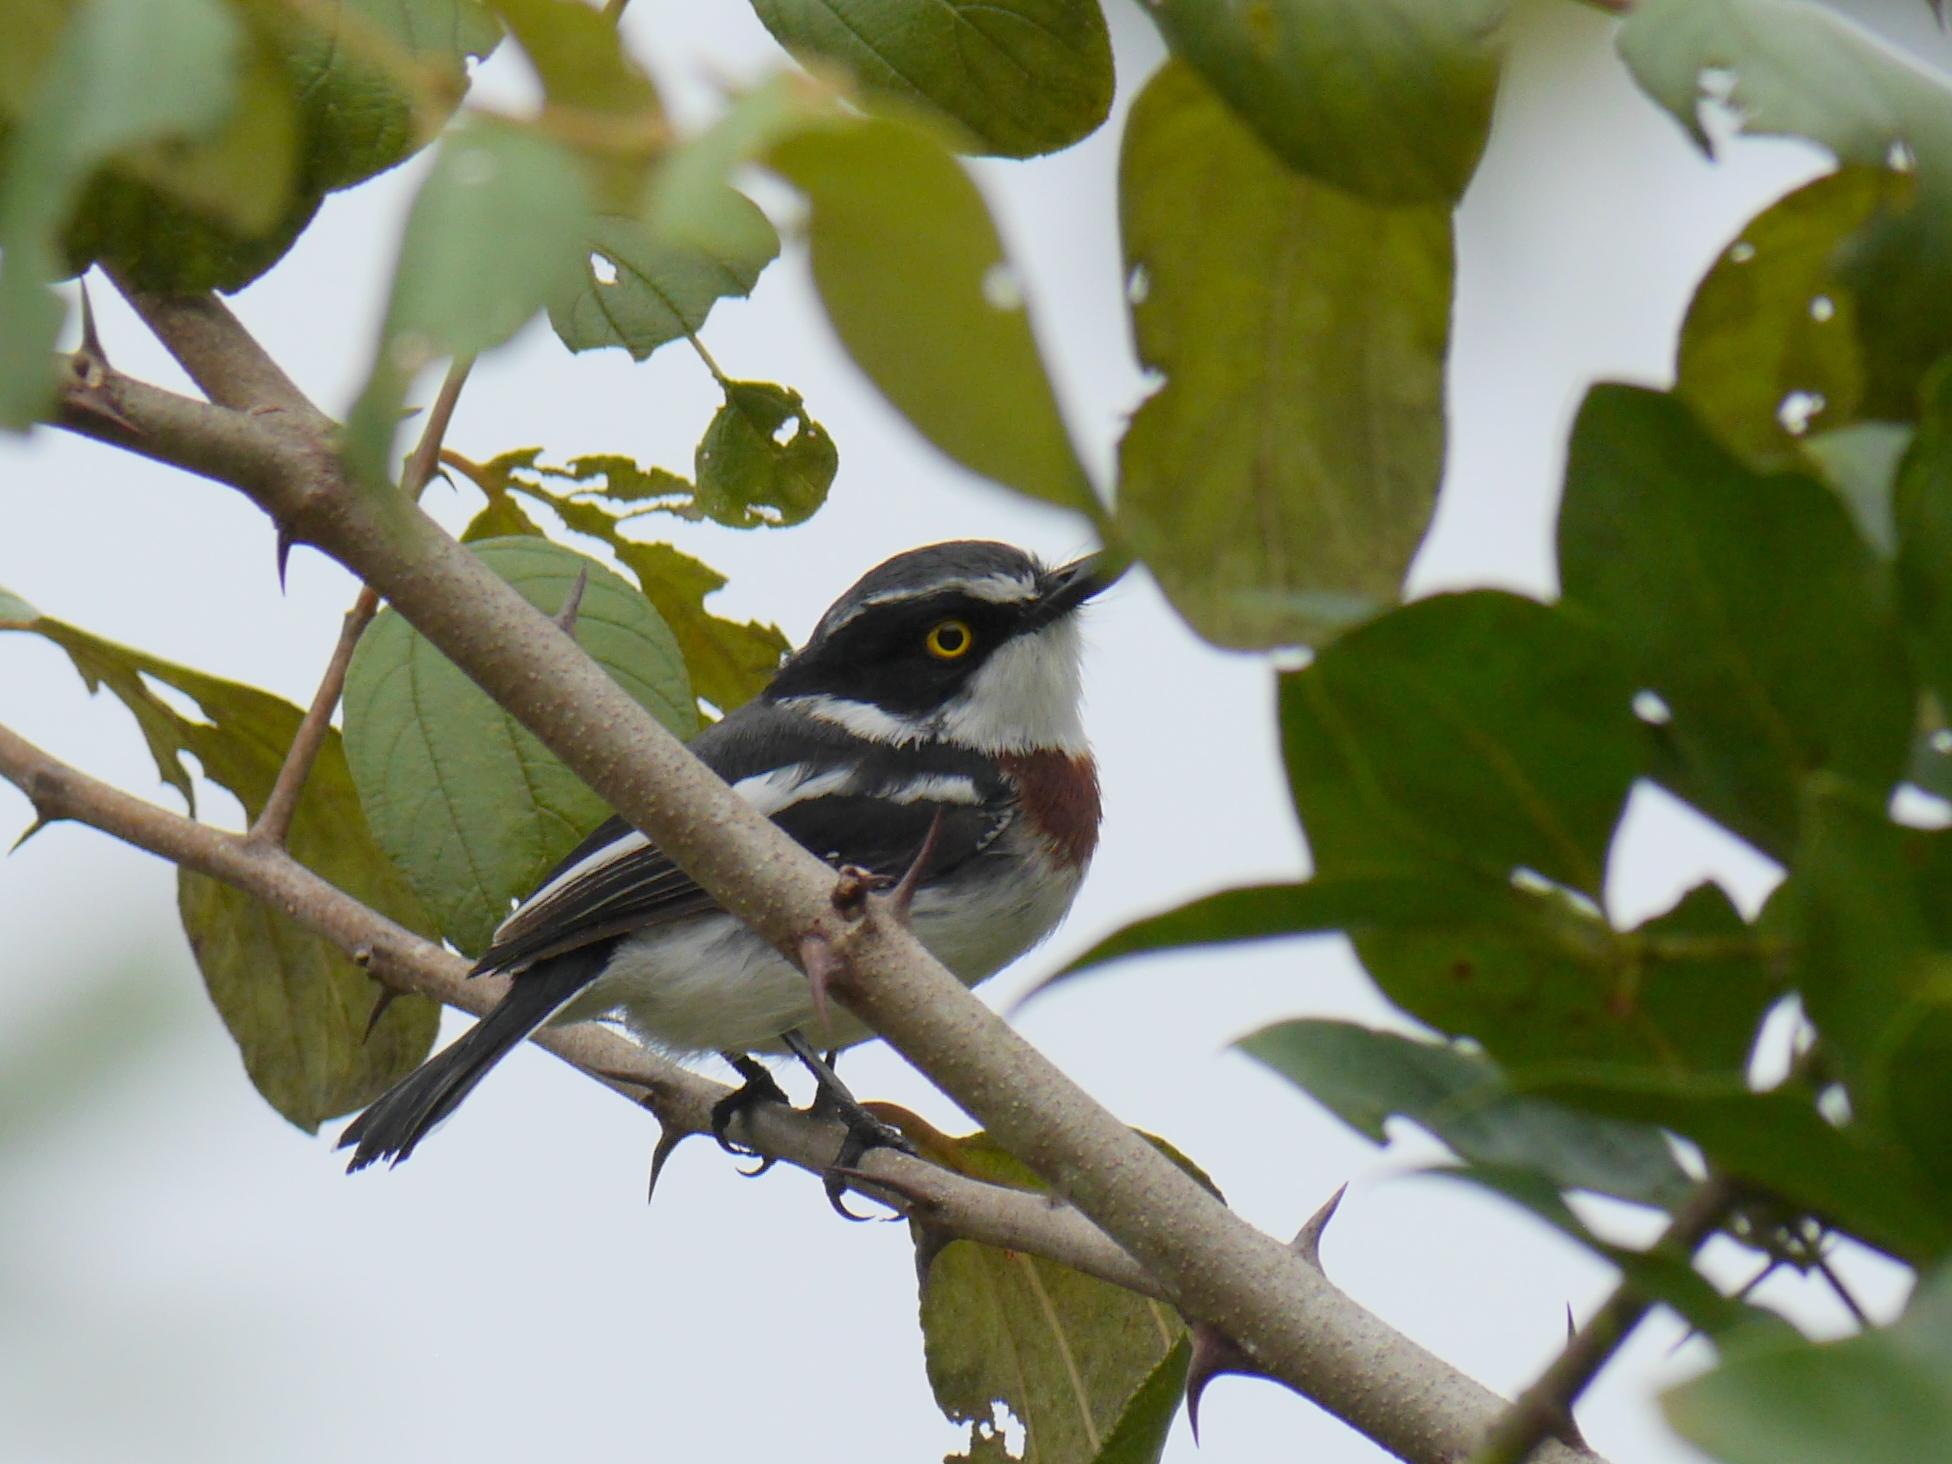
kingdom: Animalia
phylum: Chordata
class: Aves
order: Passeriformes
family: Platysteiridae
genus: Batis
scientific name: Batis erlangeri
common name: Western black-headed batis
